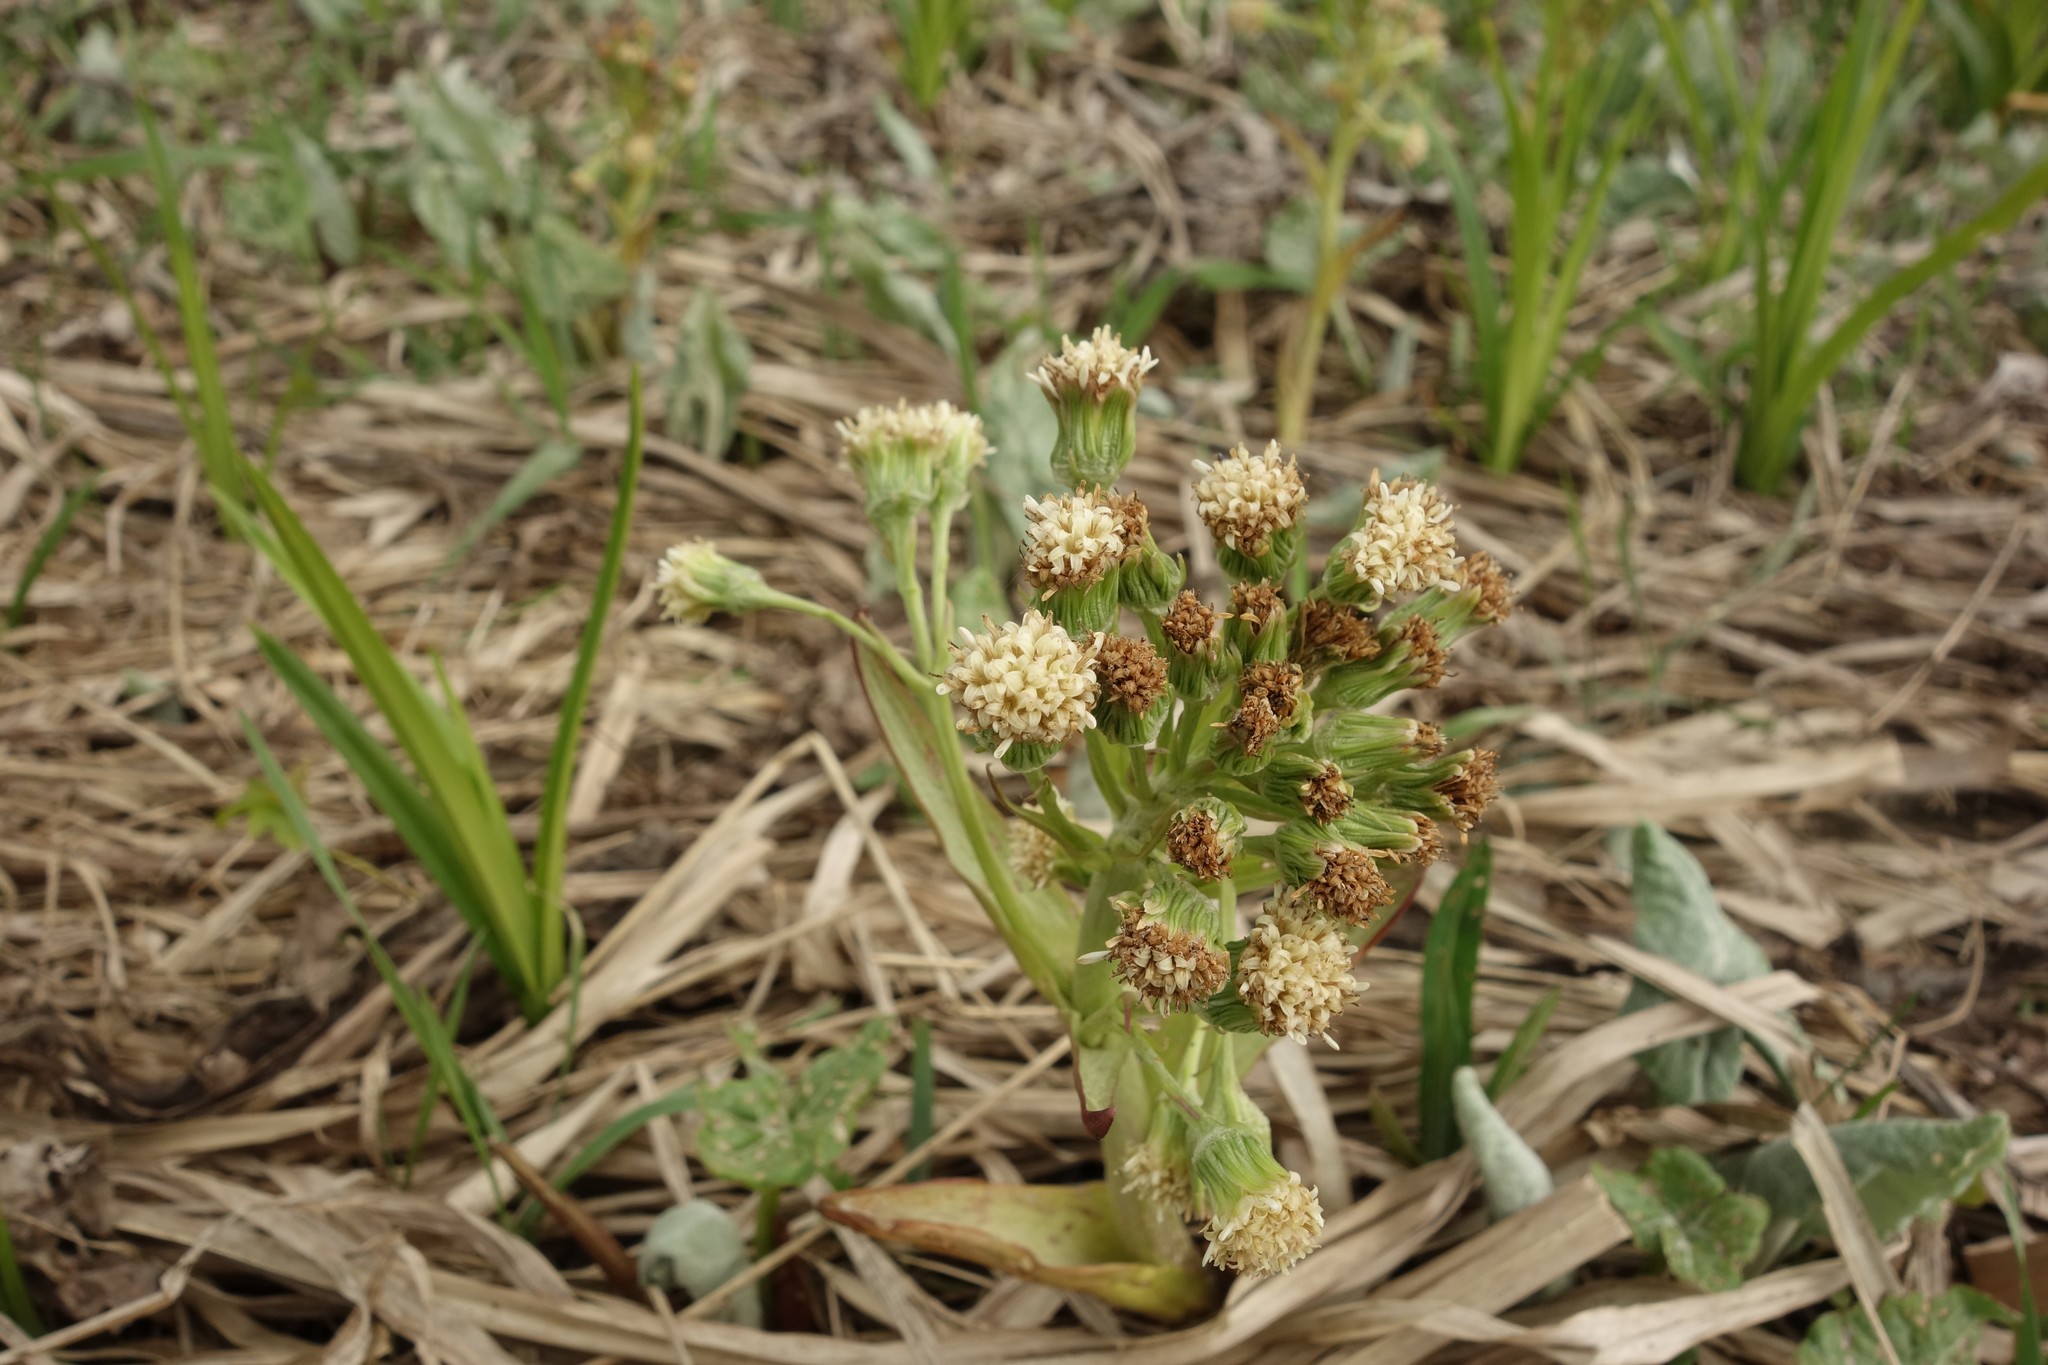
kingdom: Plantae
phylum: Tracheophyta
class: Magnoliopsida
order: Asterales
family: Asteraceae
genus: Petasites
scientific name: Petasites spurius
